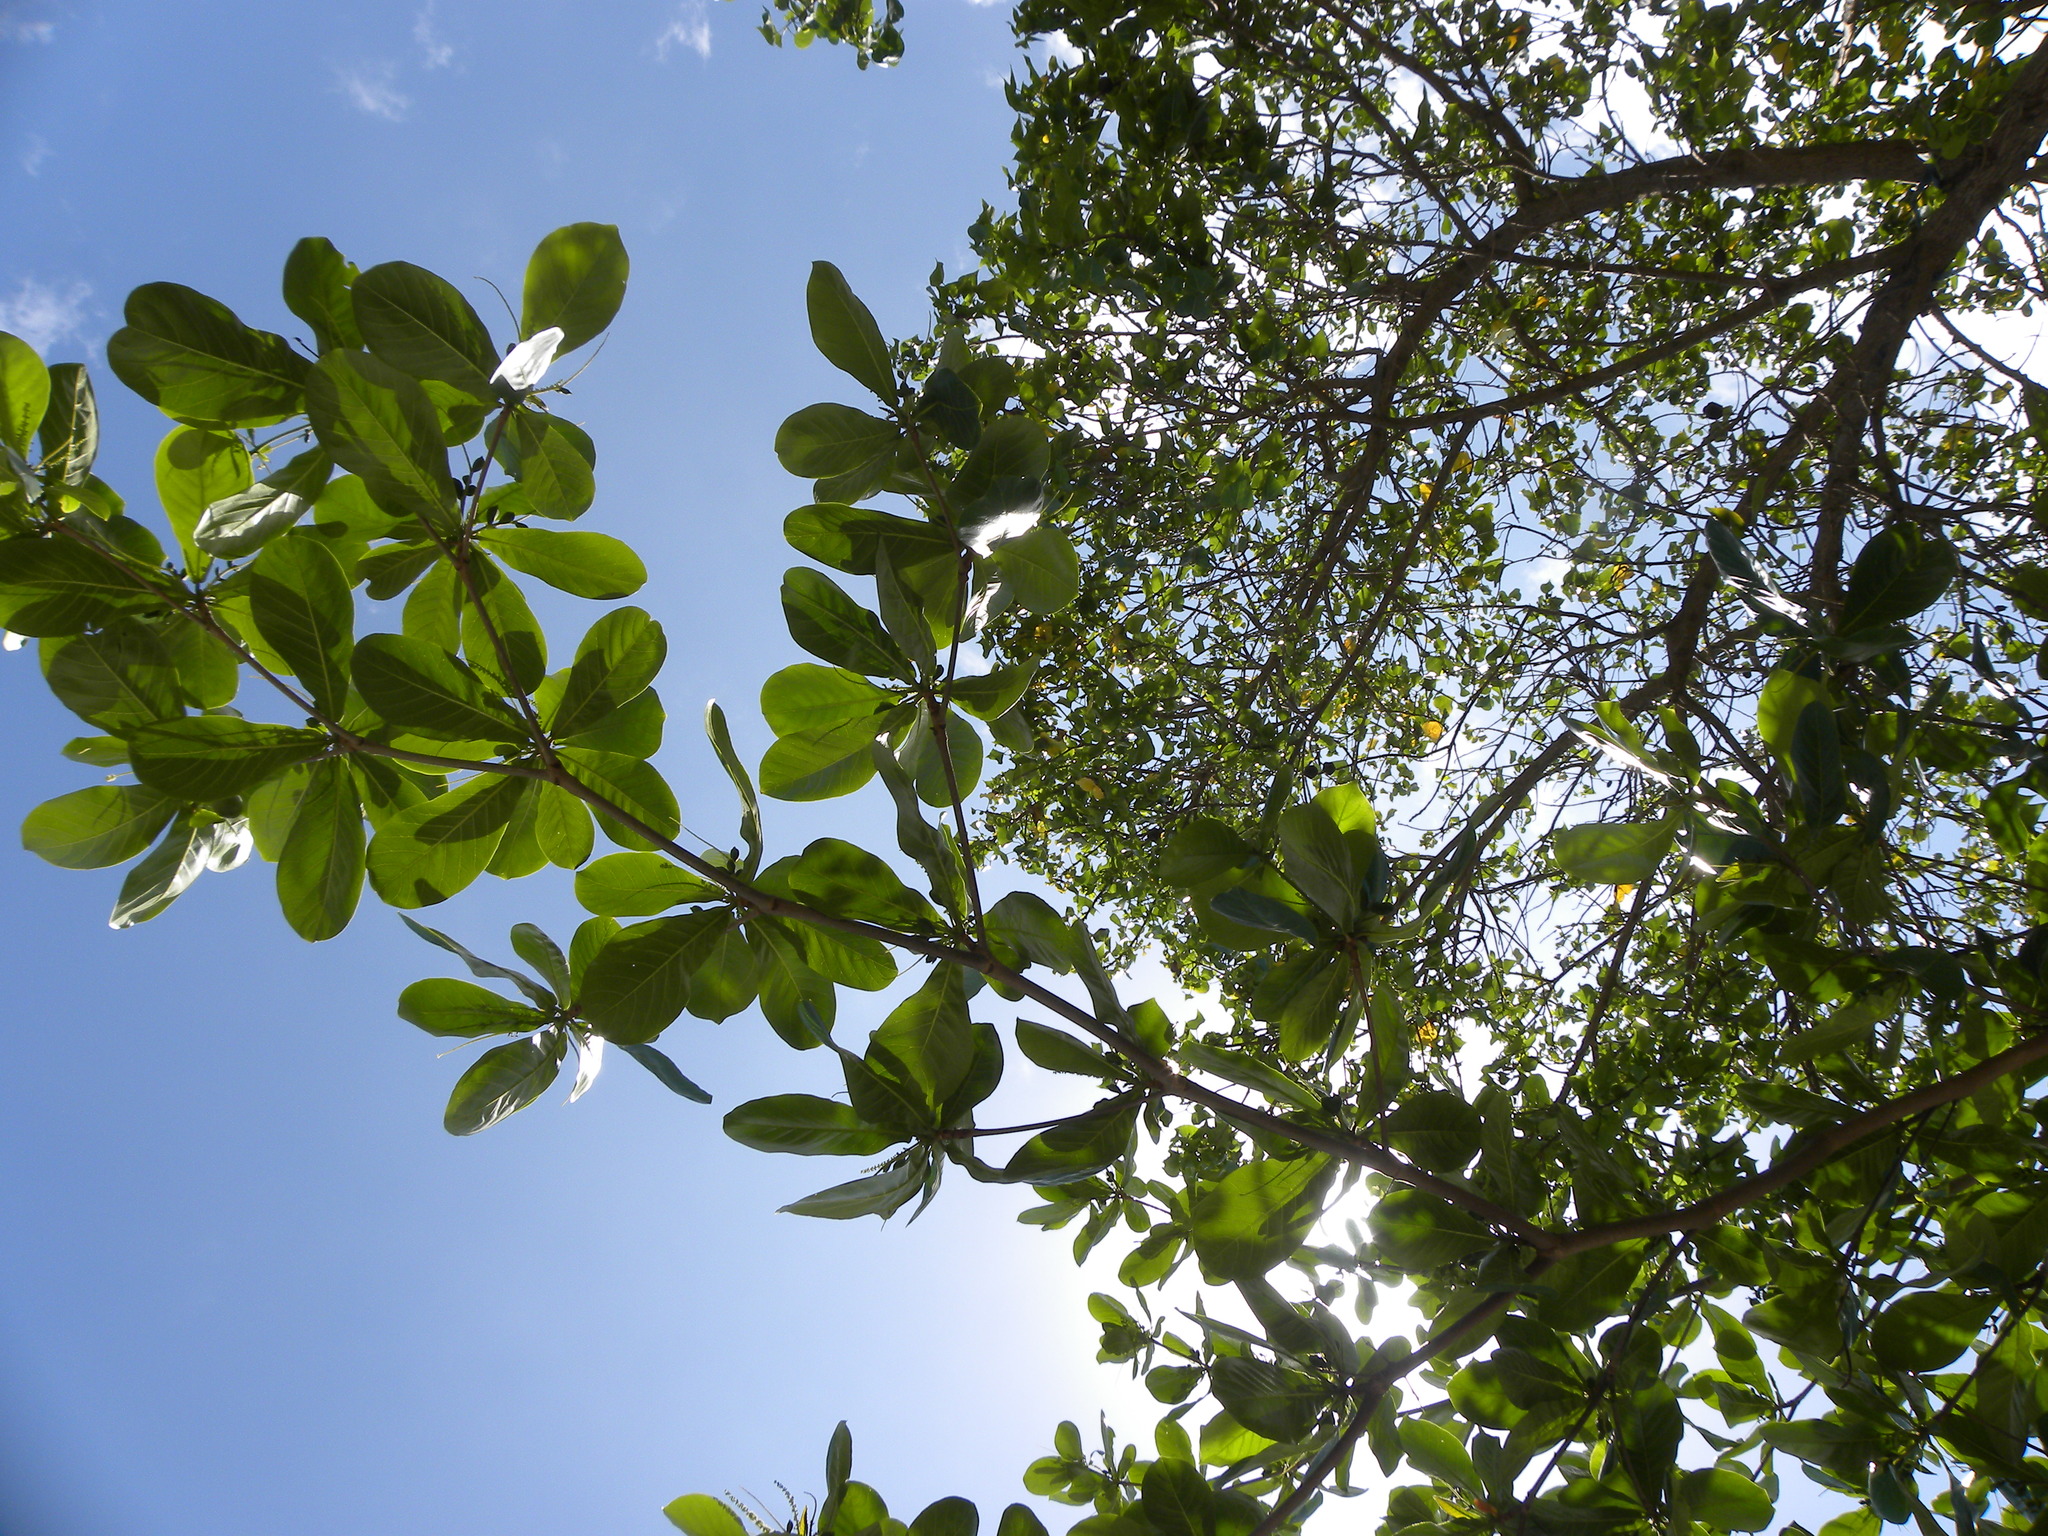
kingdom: Plantae
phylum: Tracheophyta
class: Magnoliopsida
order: Myrtales
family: Combretaceae
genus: Terminalia
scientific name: Terminalia catappa
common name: Tropical almond
